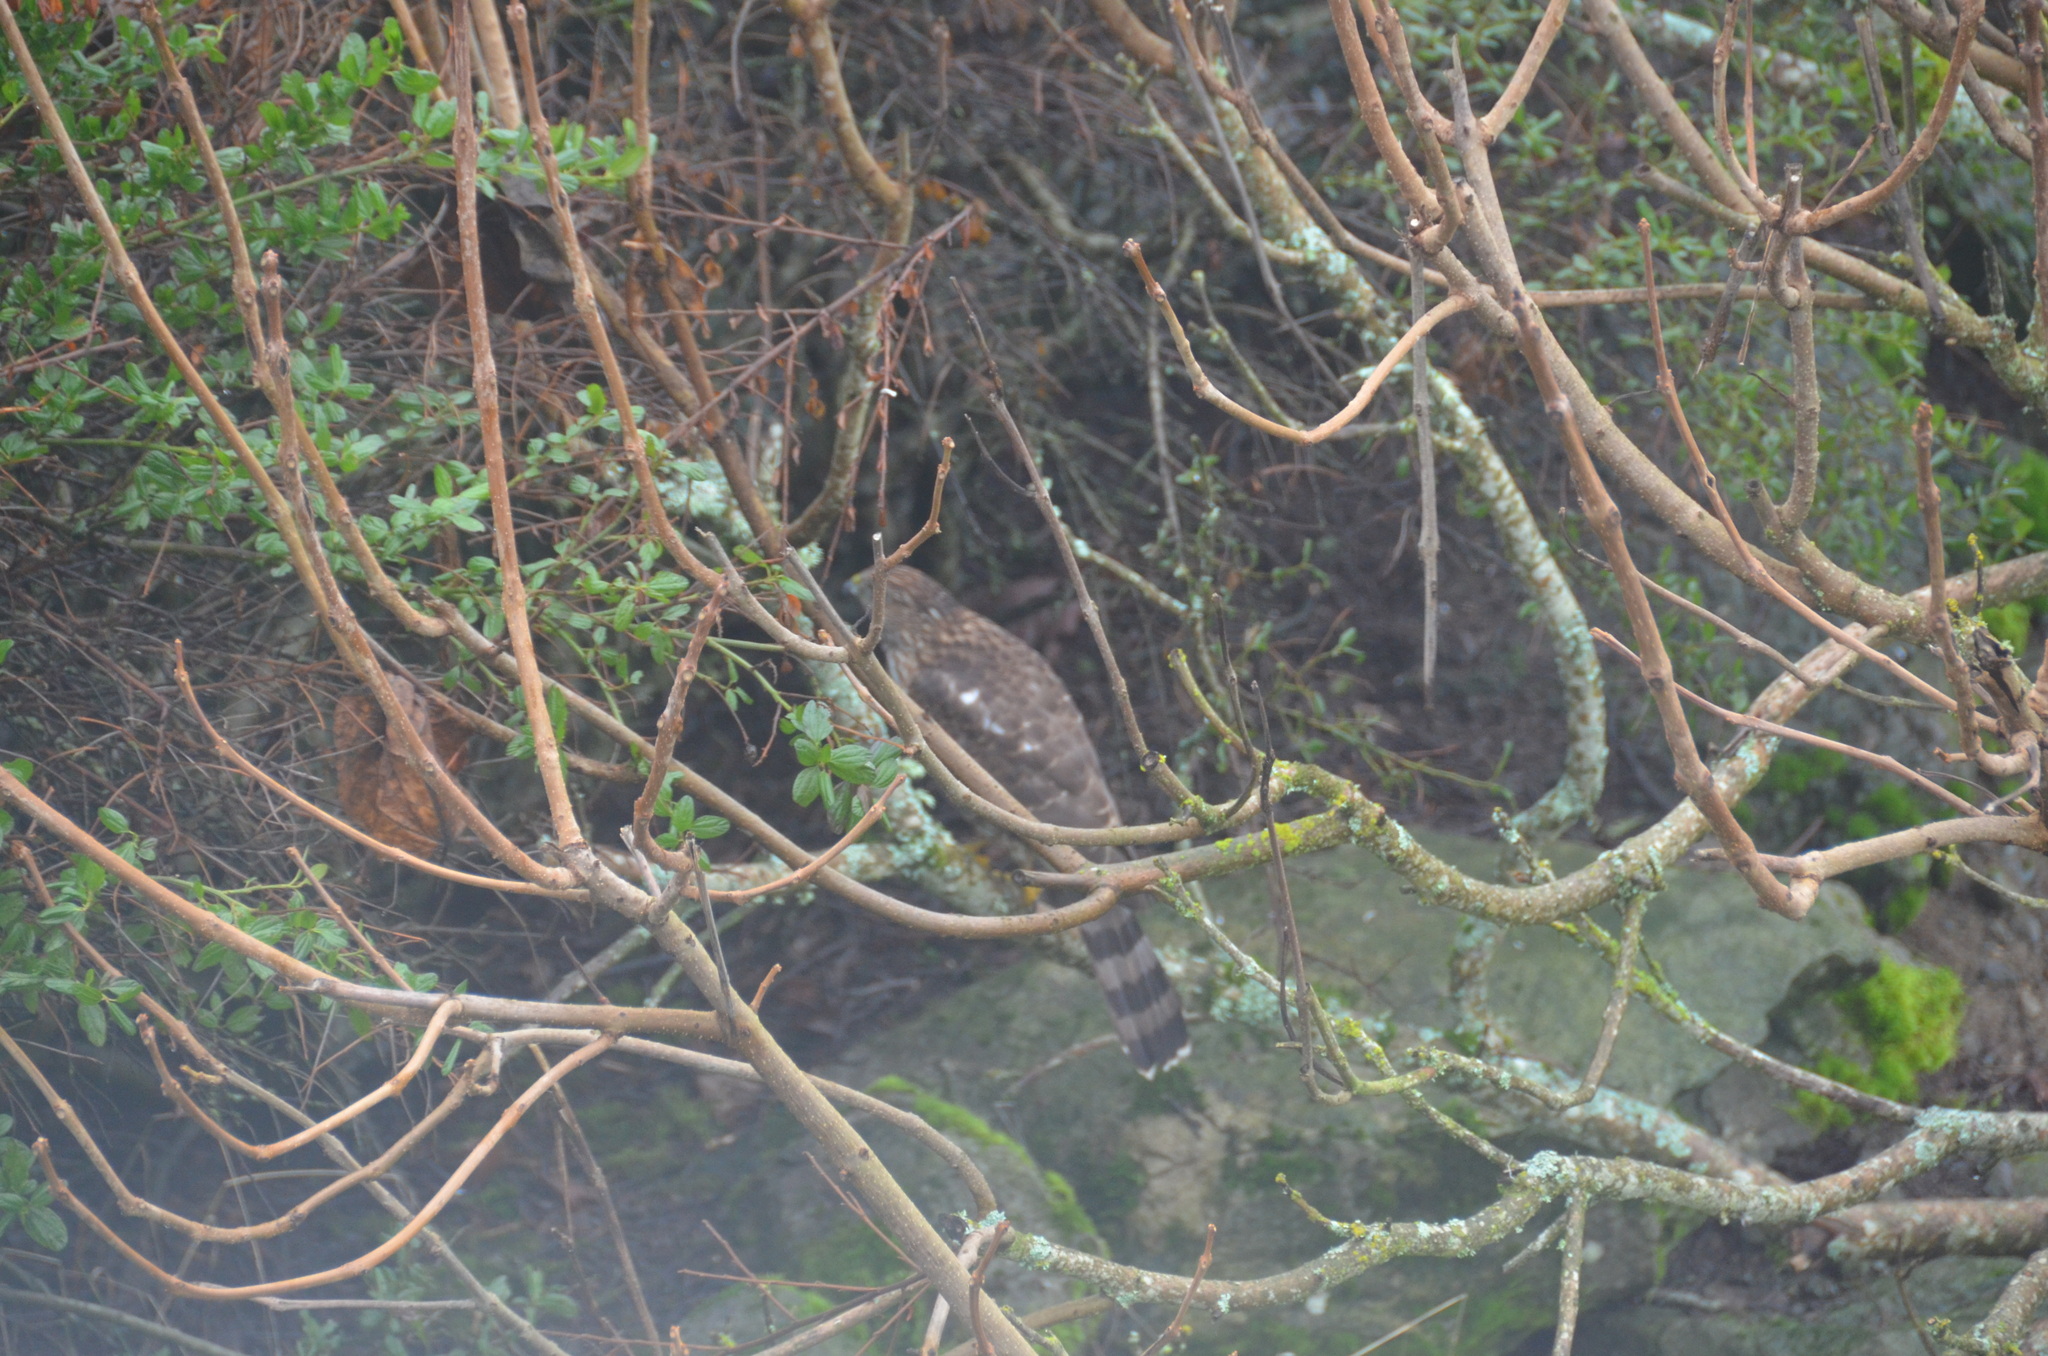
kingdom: Animalia
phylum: Chordata
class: Aves
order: Accipitriformes
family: Accipitridae
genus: Accipiter
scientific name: Accipiter cooperii
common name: Cooper's hawk
